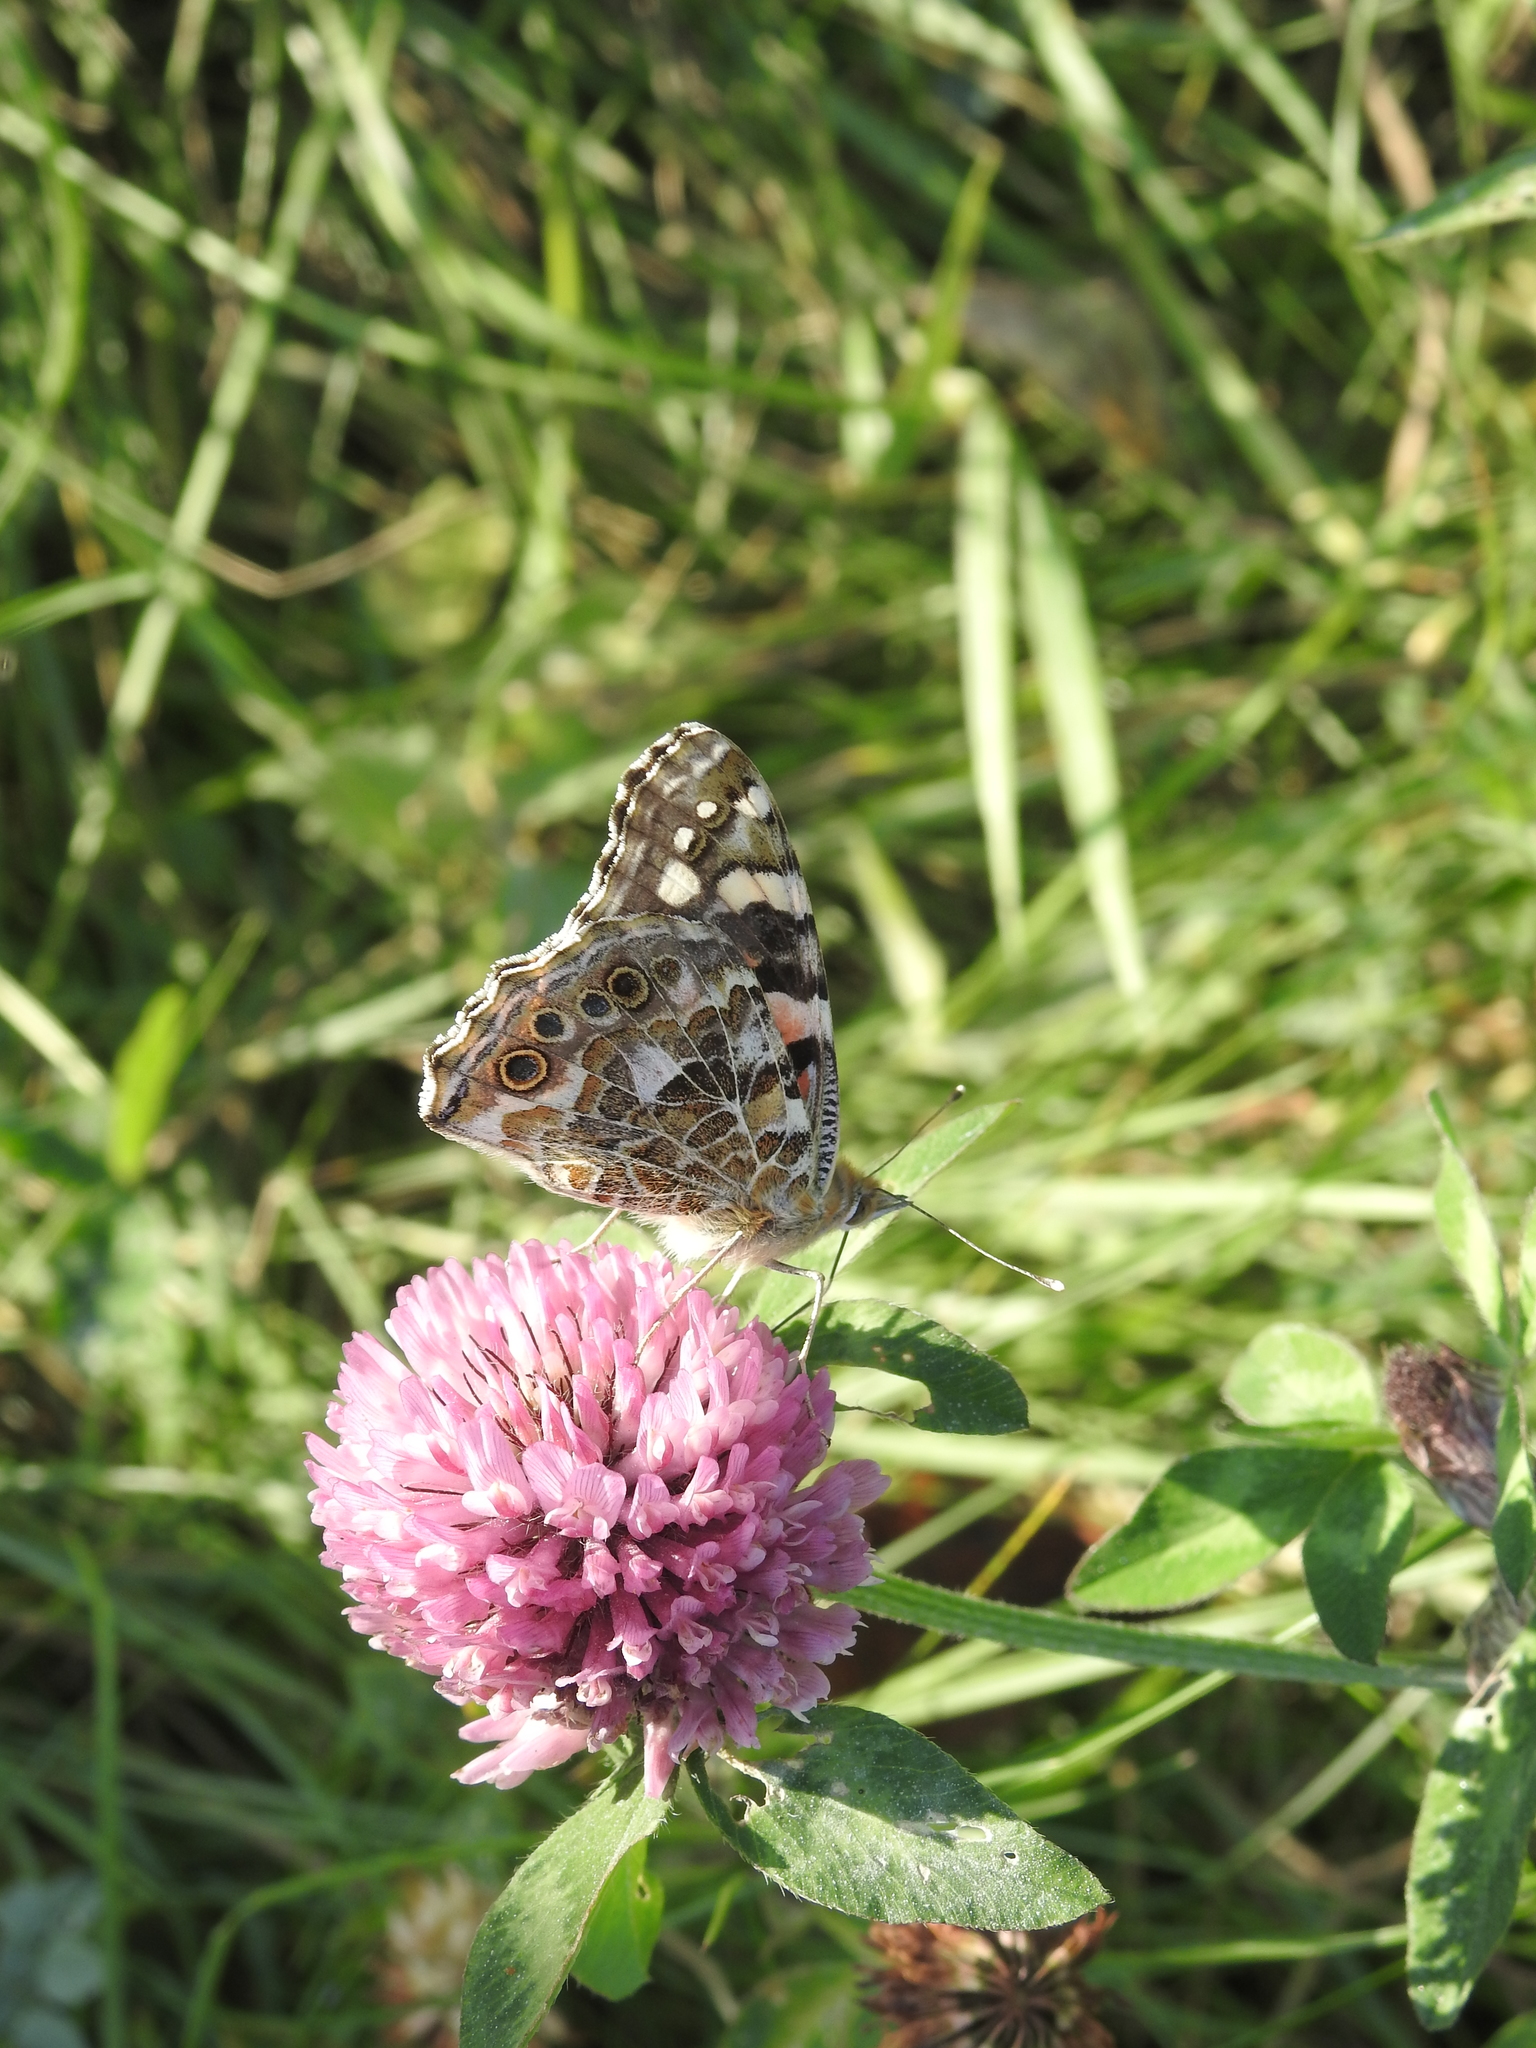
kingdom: Animalia
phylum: Arthropoda
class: Insecta
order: Lepidoptera
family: Nymphalidae
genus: Vanessa
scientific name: Vanessa cardui
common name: Painted lady
